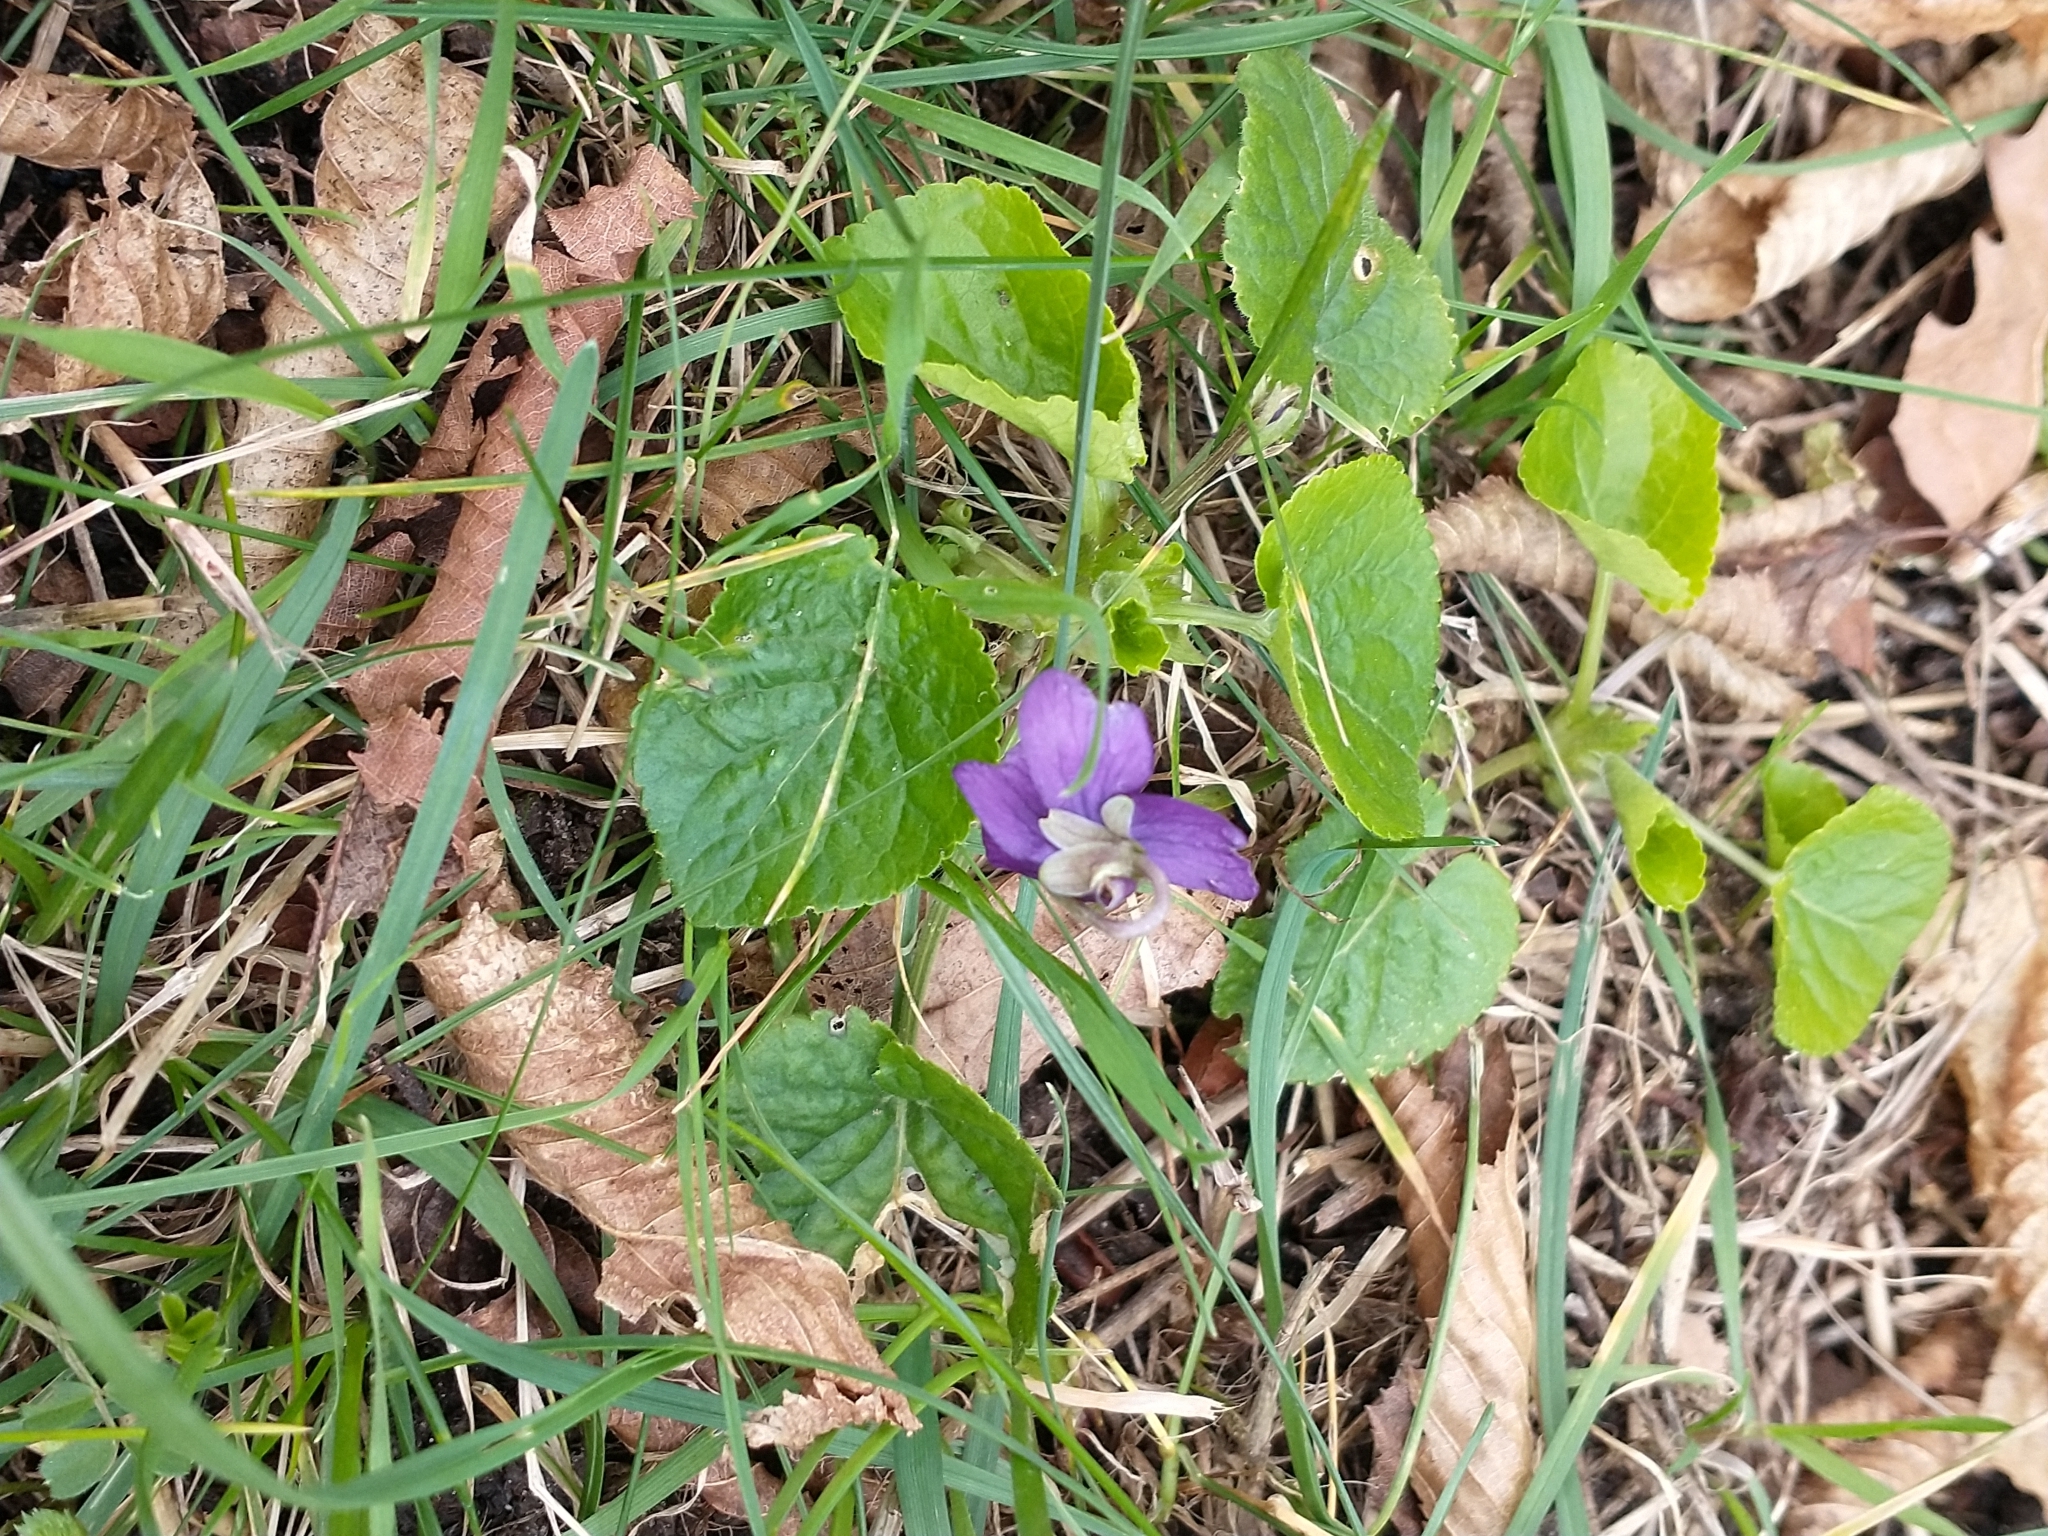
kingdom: Plantae
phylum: Tracheophyta
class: Magnoliopsida
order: Malpighiales
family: Violaceae
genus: Viola
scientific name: Viola odorata
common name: Sweet violet
